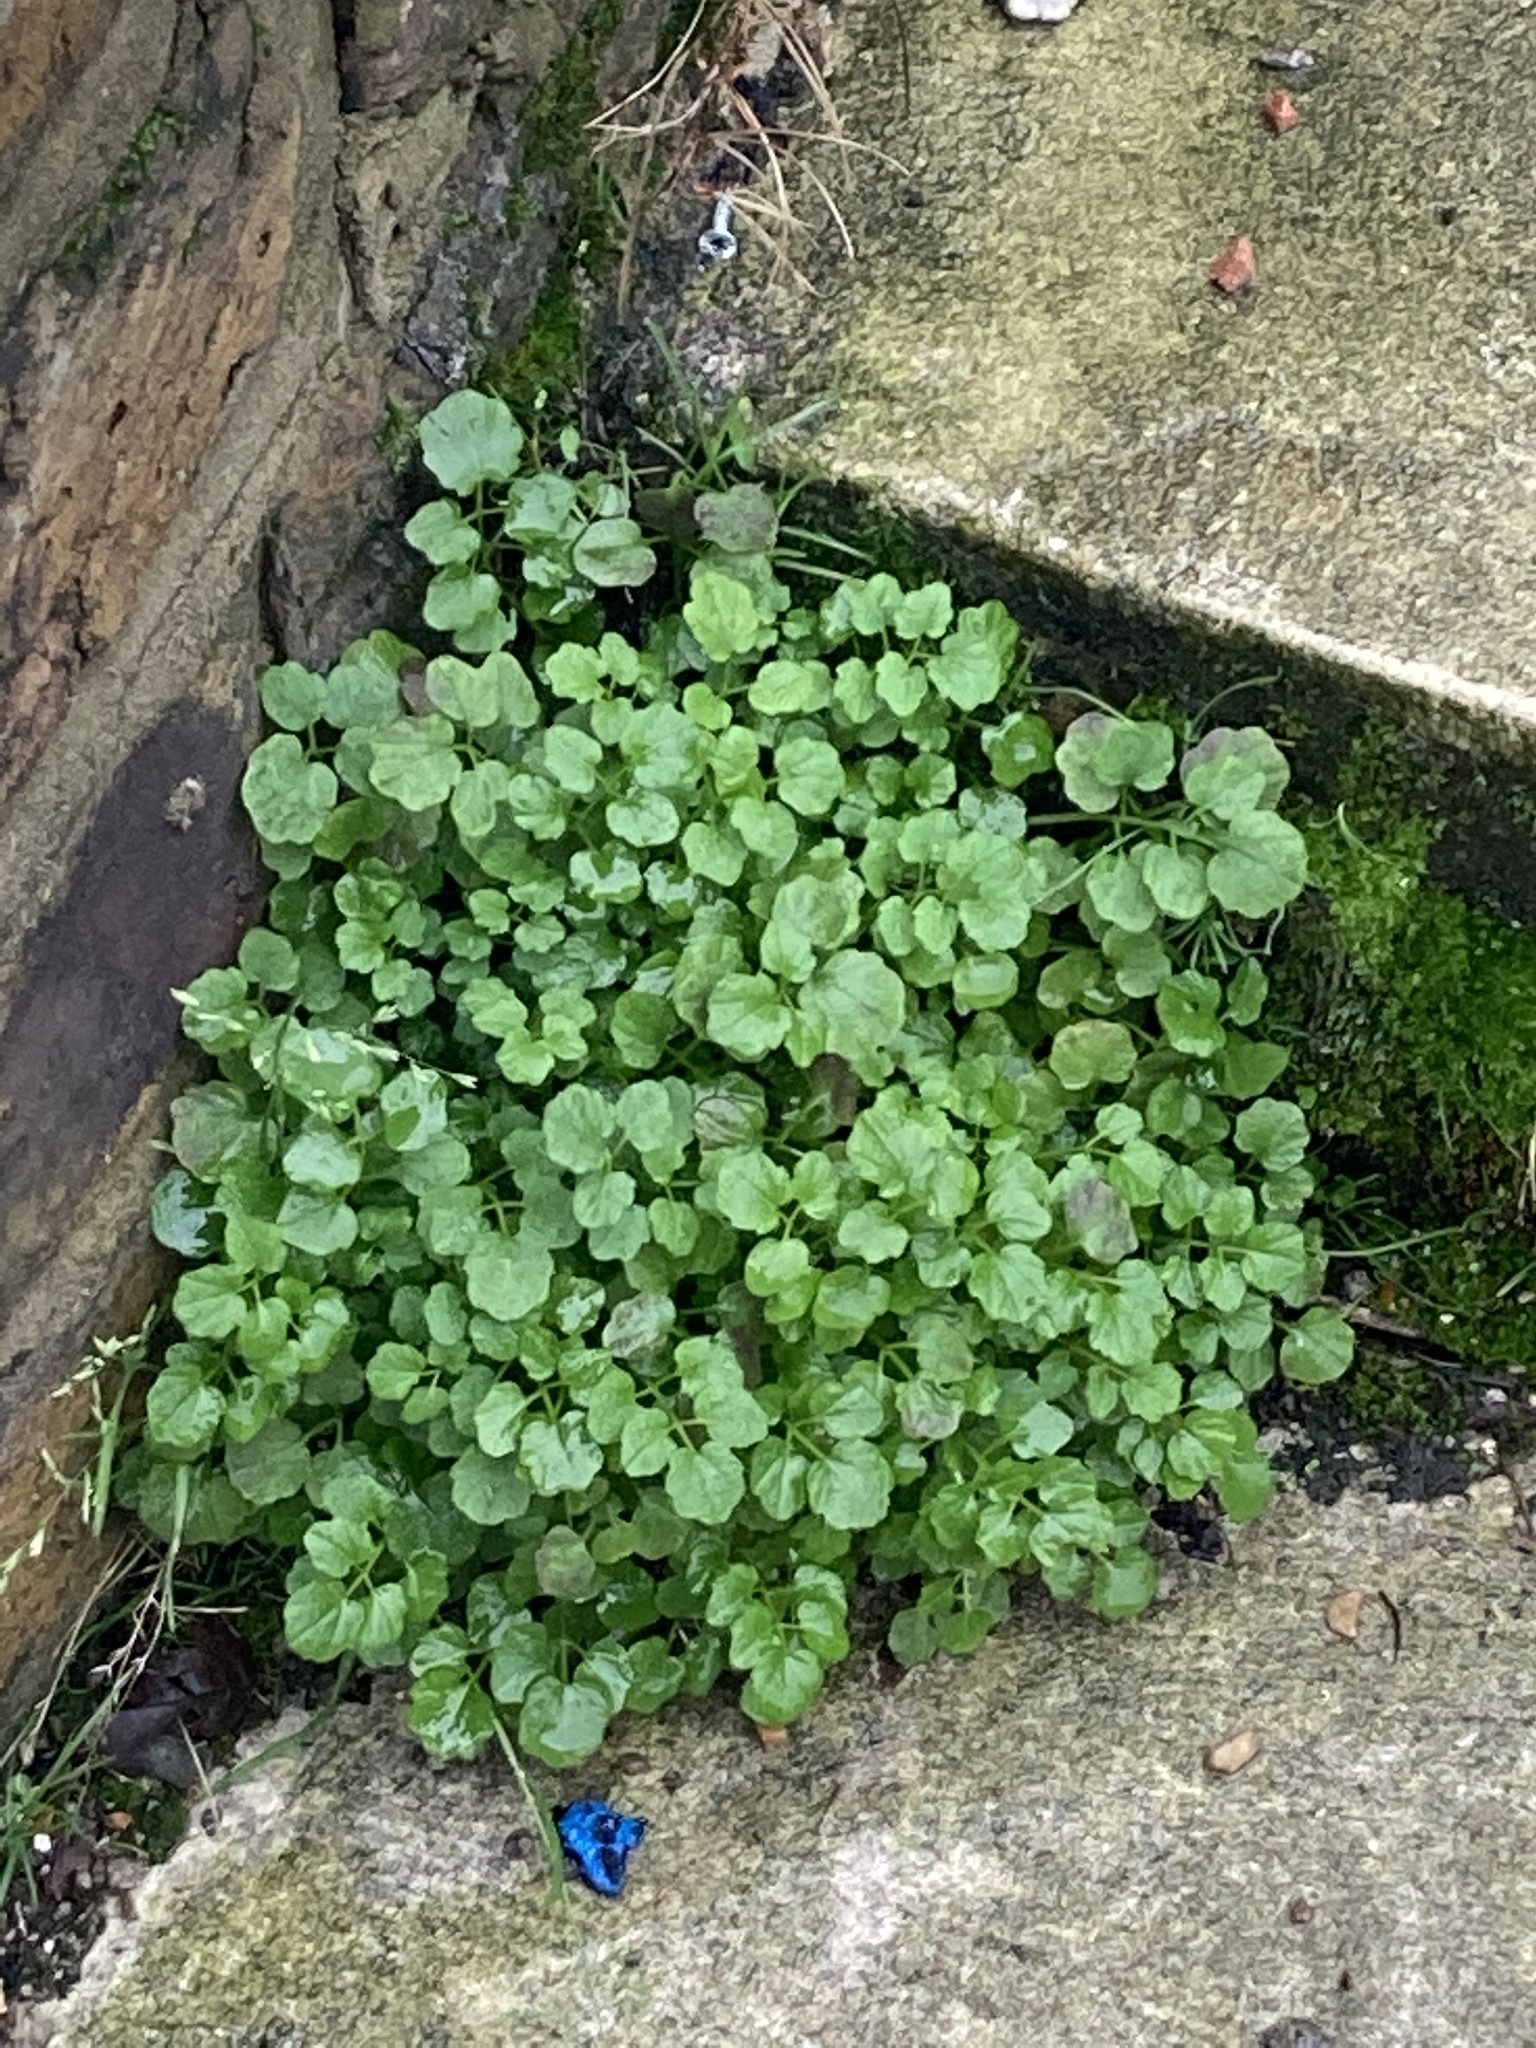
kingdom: Plantae
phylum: Tracheophyta
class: Magnoliopsida
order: Brassicales
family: Brassicaceae
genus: Cardamine
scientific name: Cardamine flexuosa
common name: Woodland bittercress
